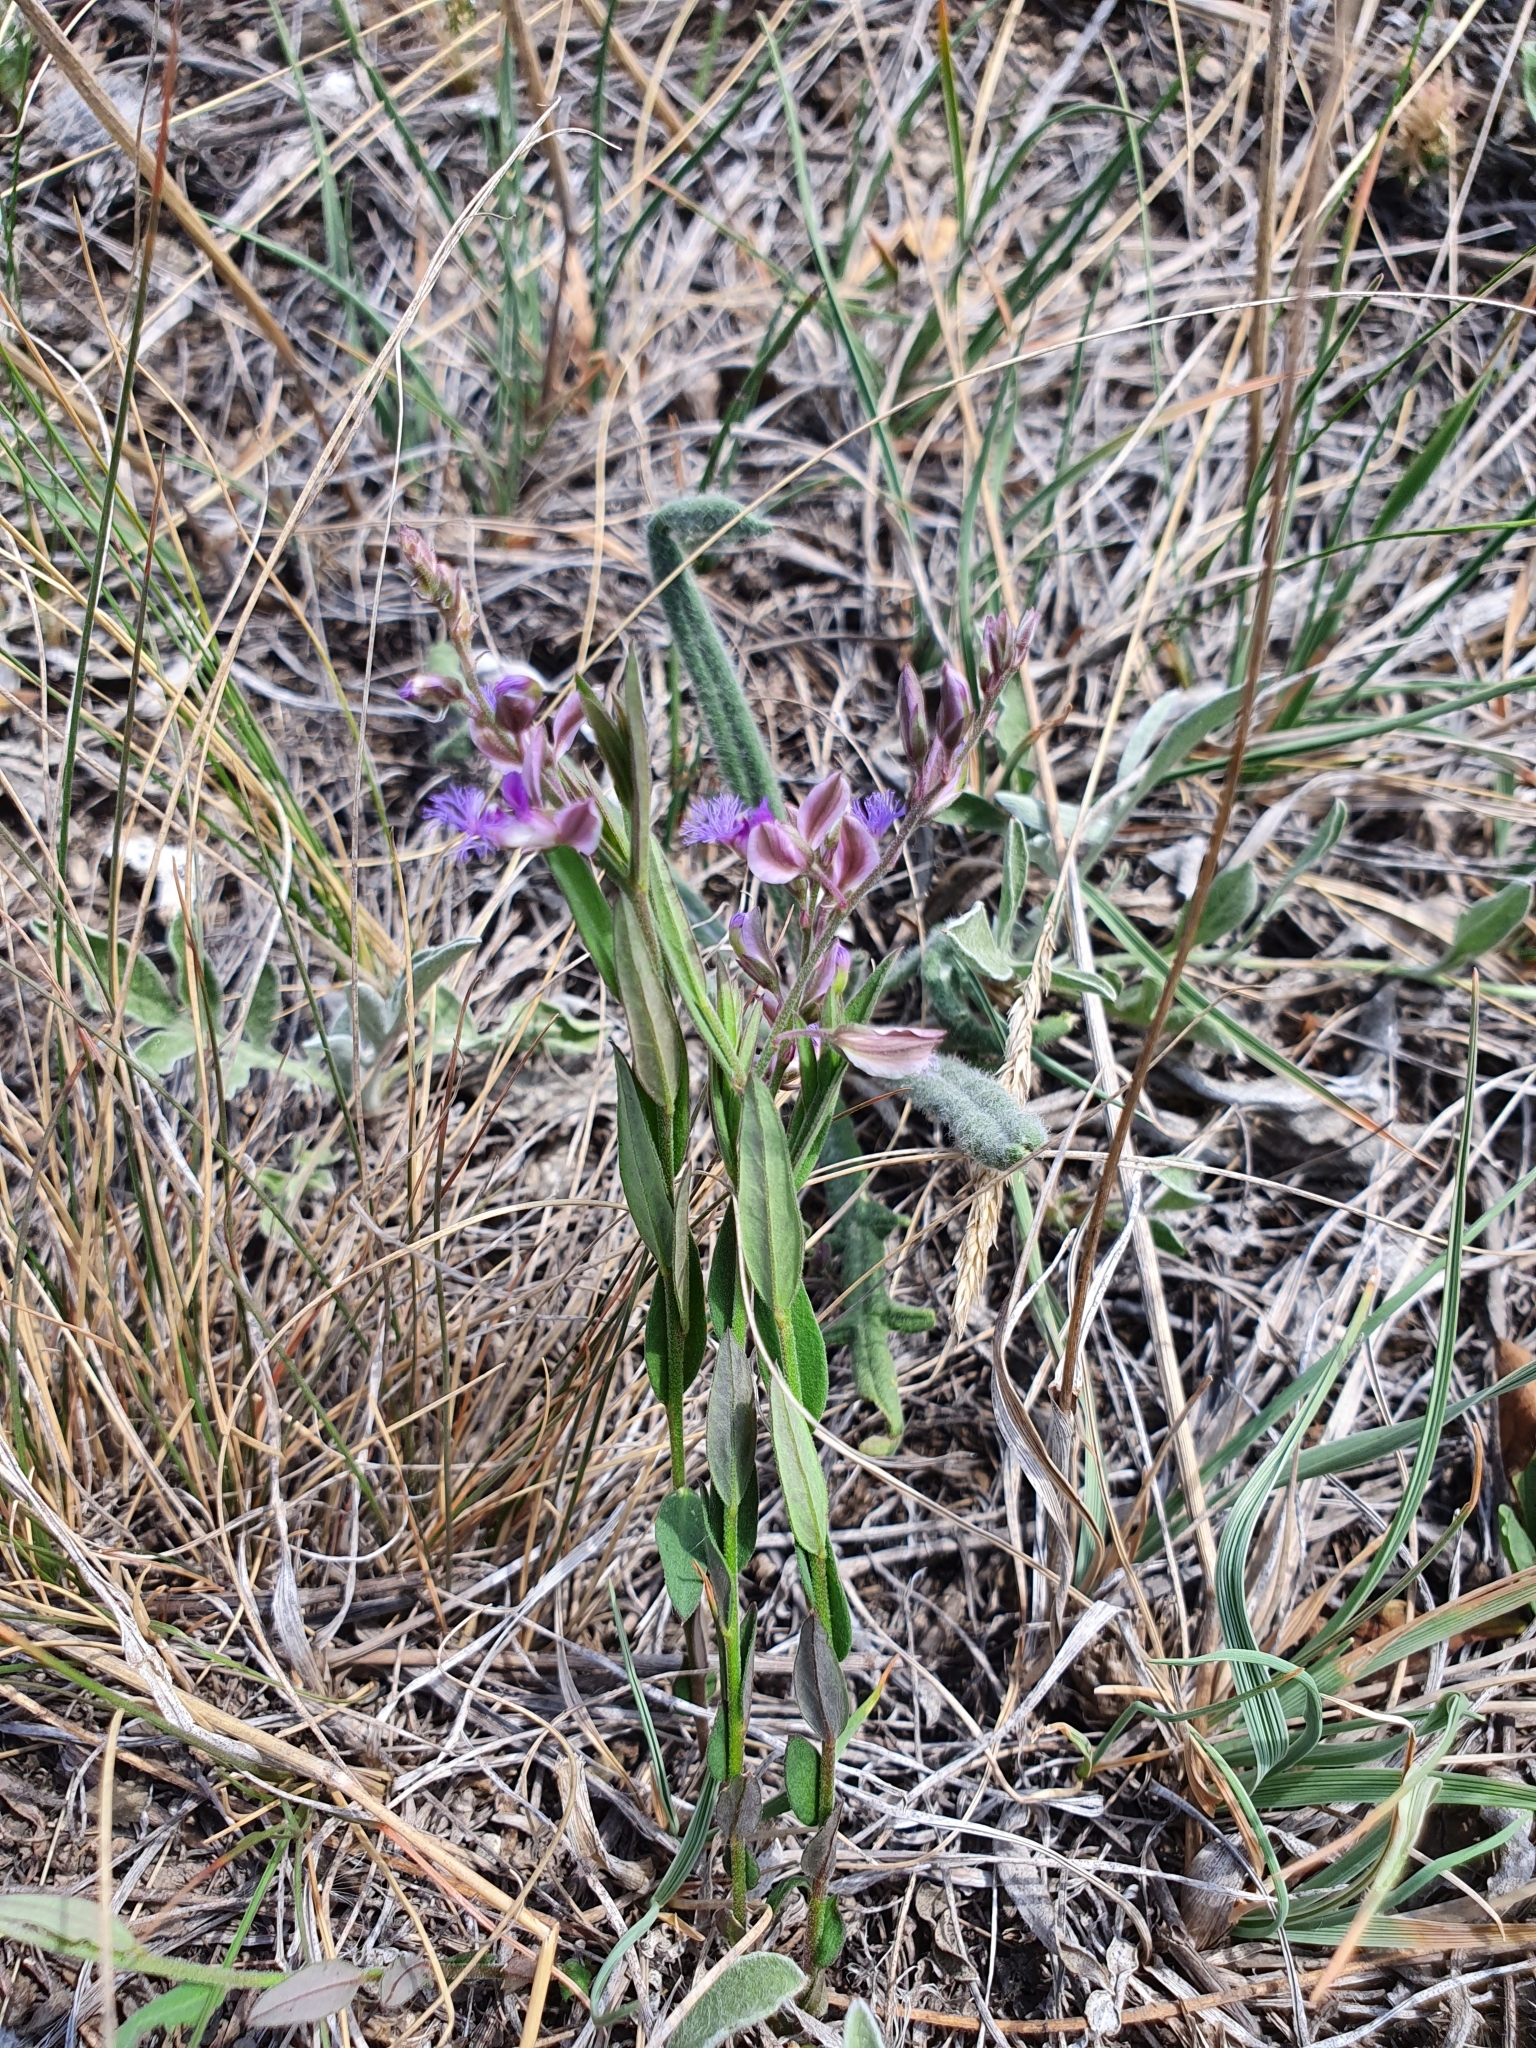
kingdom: Plantae
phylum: Tracheophyta
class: Magnoliopsida
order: Fabales
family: Polygalaceae
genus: Polygala
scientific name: Polygala sibirica
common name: Siberian polygala
